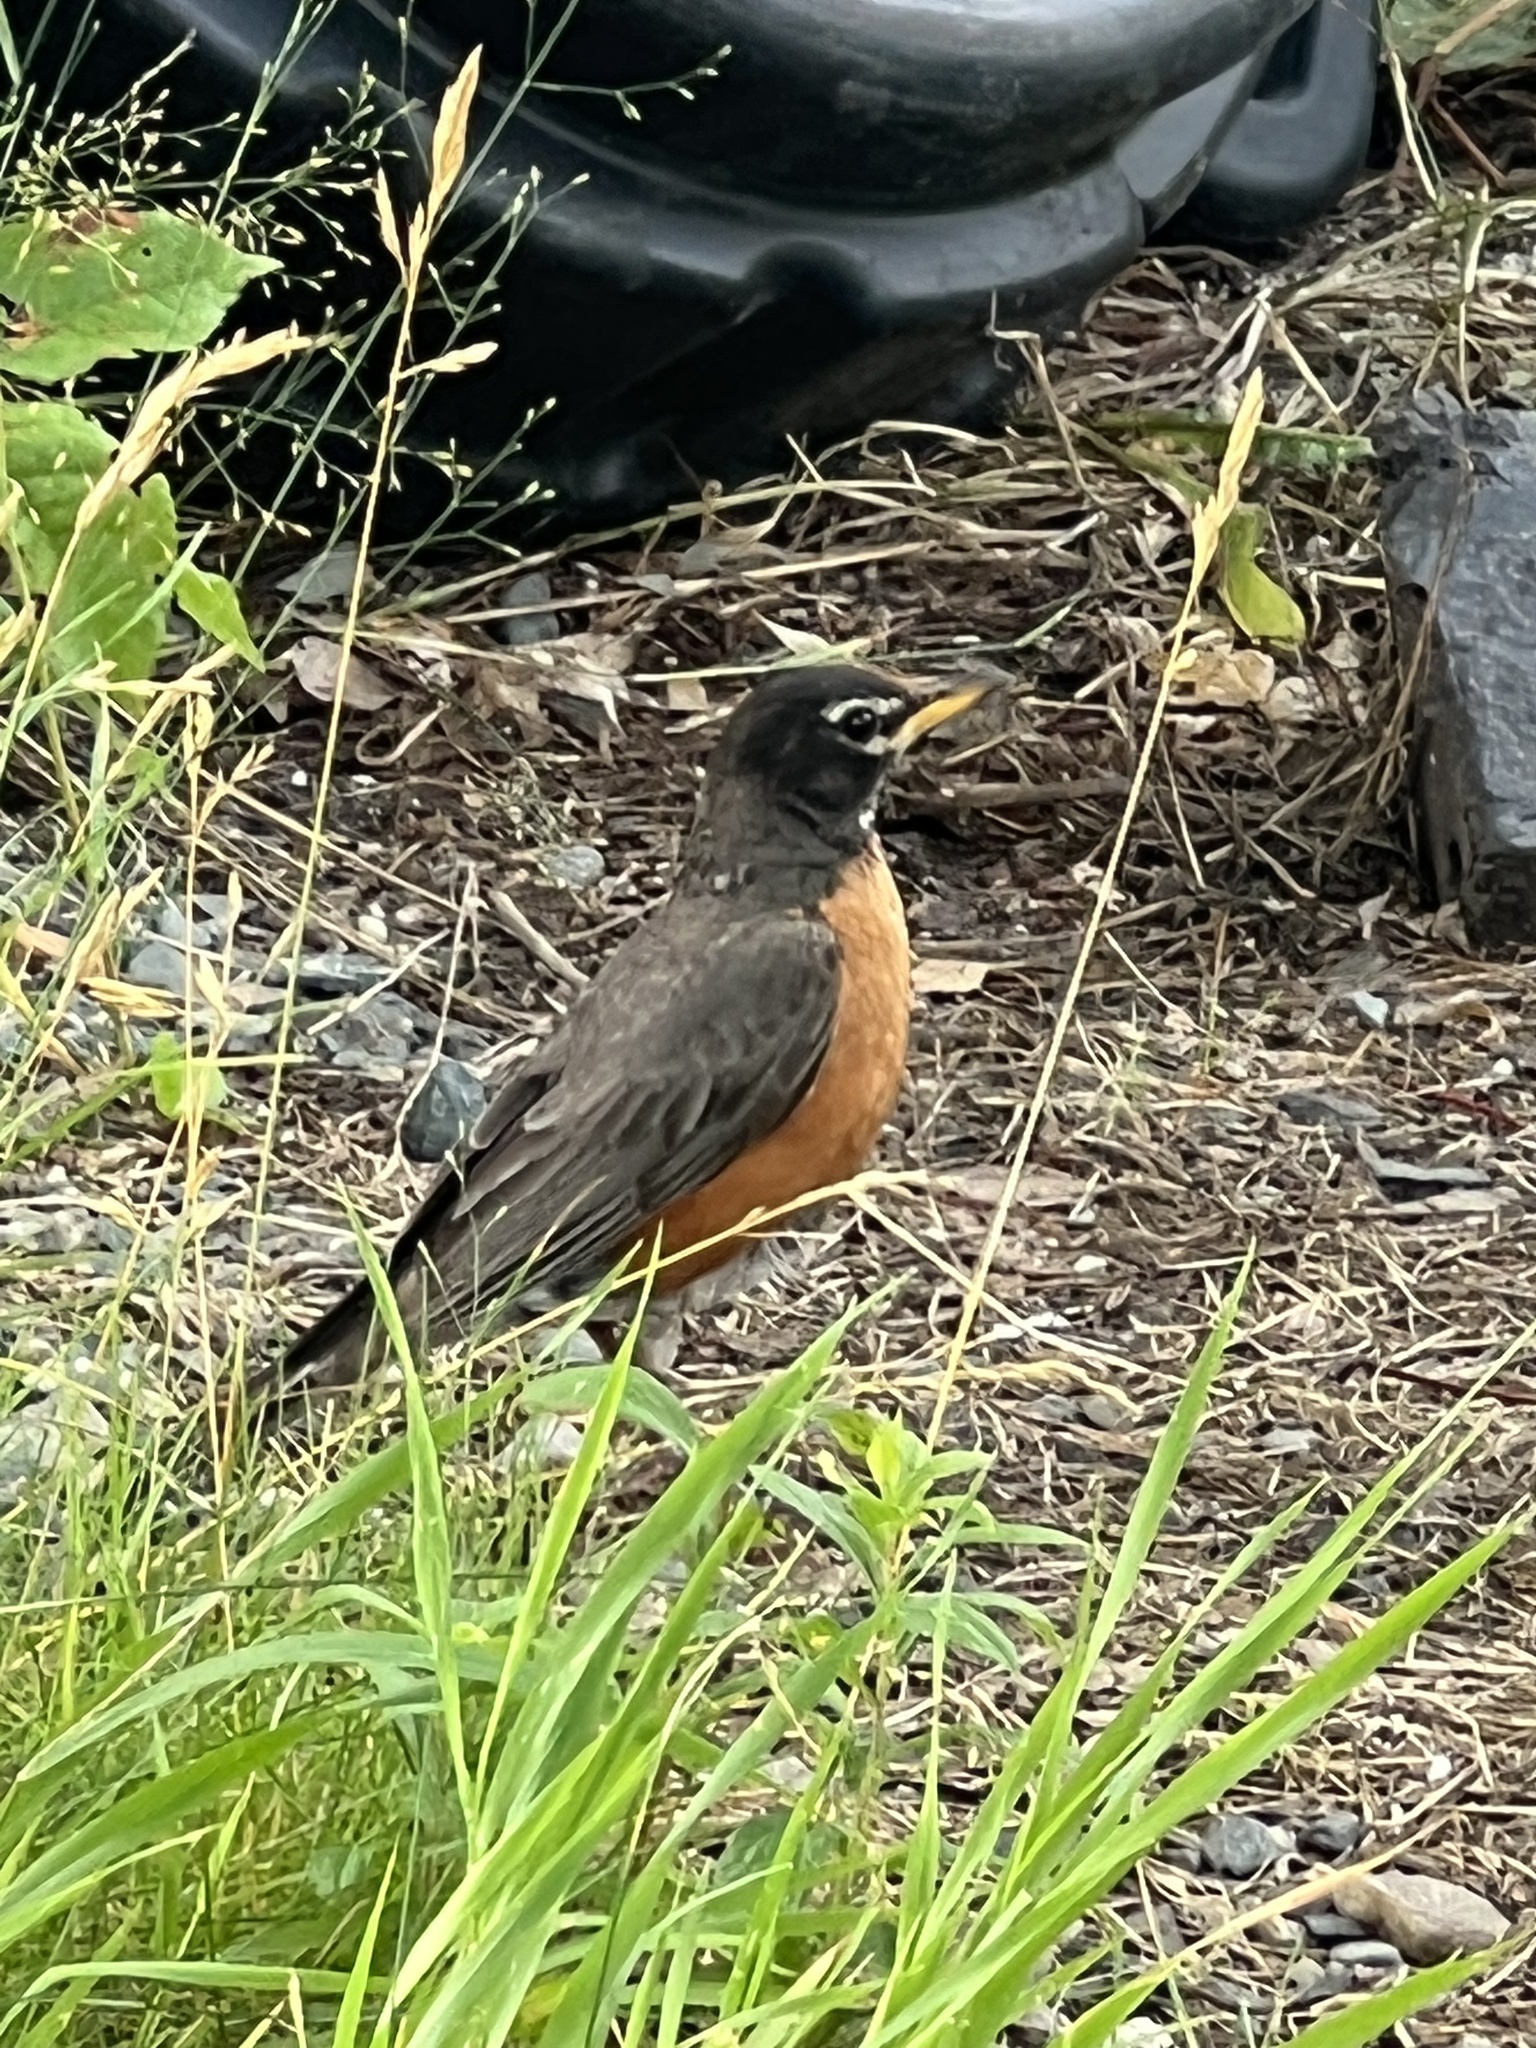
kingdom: Animalia
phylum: Chordata
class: Aves
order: Passeriformes
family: Turdidae
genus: Turdus
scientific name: Turdus migratorius
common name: American robin
